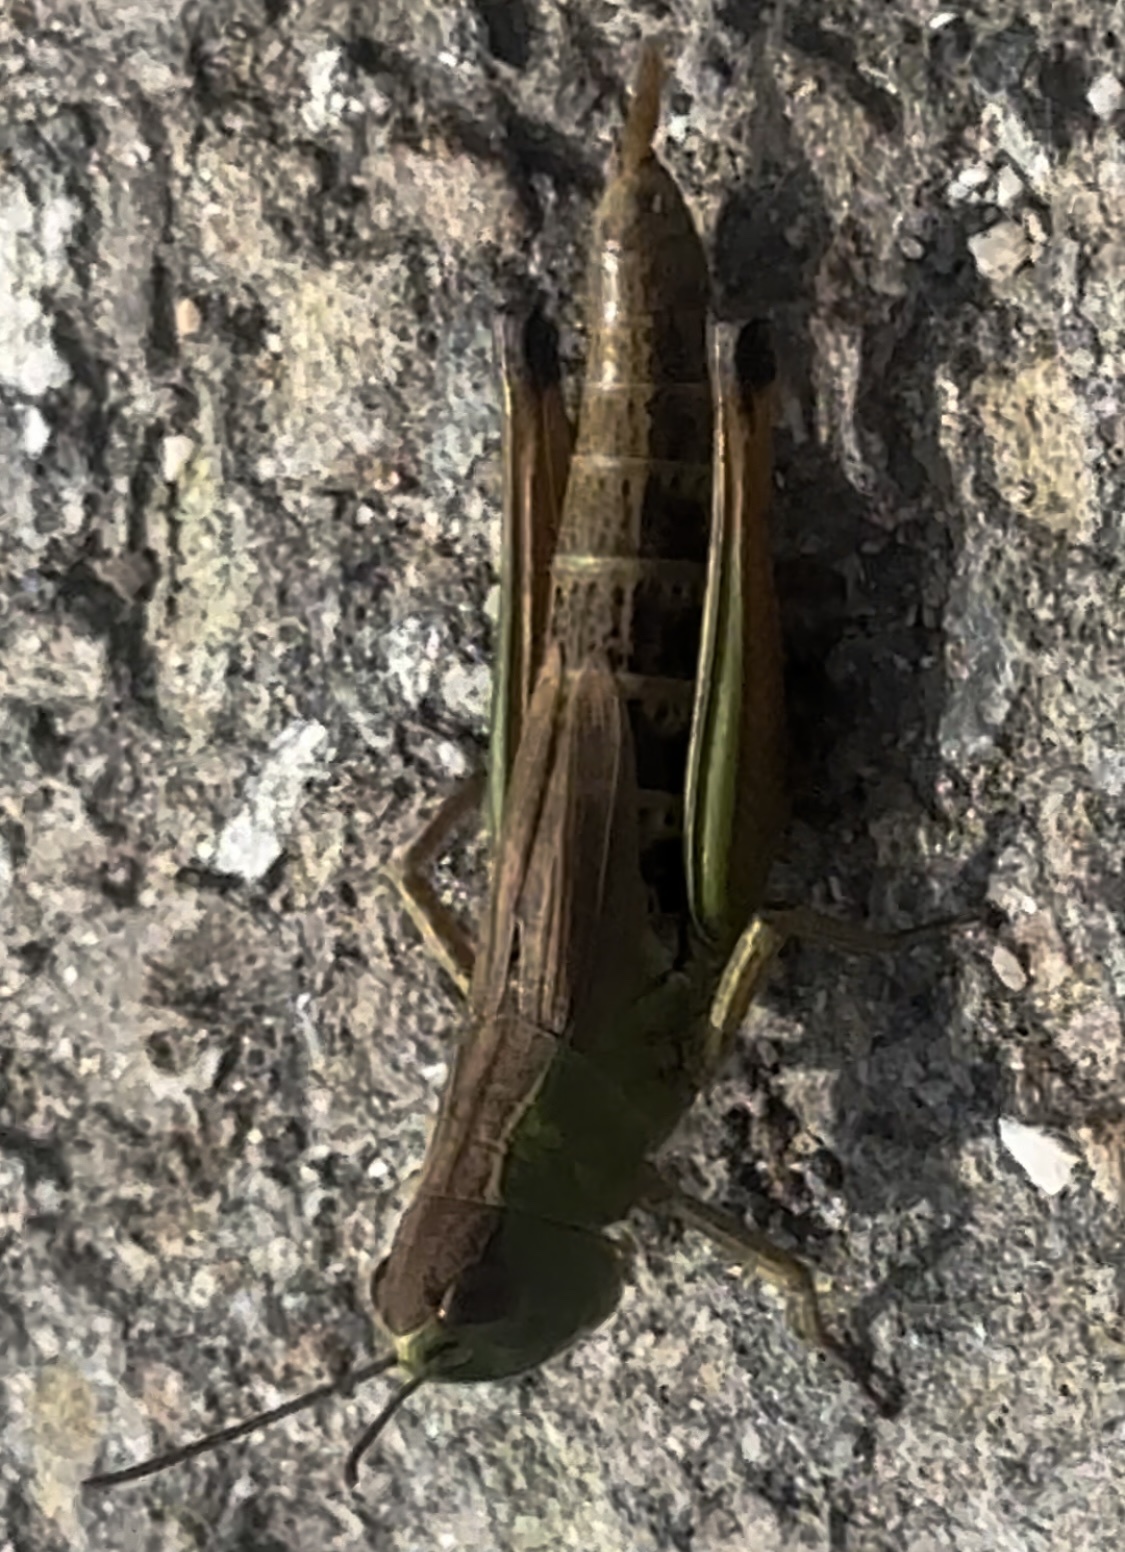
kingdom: Animalia
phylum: Arthropoda
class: Insecta
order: Orthoptera
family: Acrididae
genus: Pseudochorthippus
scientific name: Pseudochorthippus parallelus
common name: Meadow grasshopper
